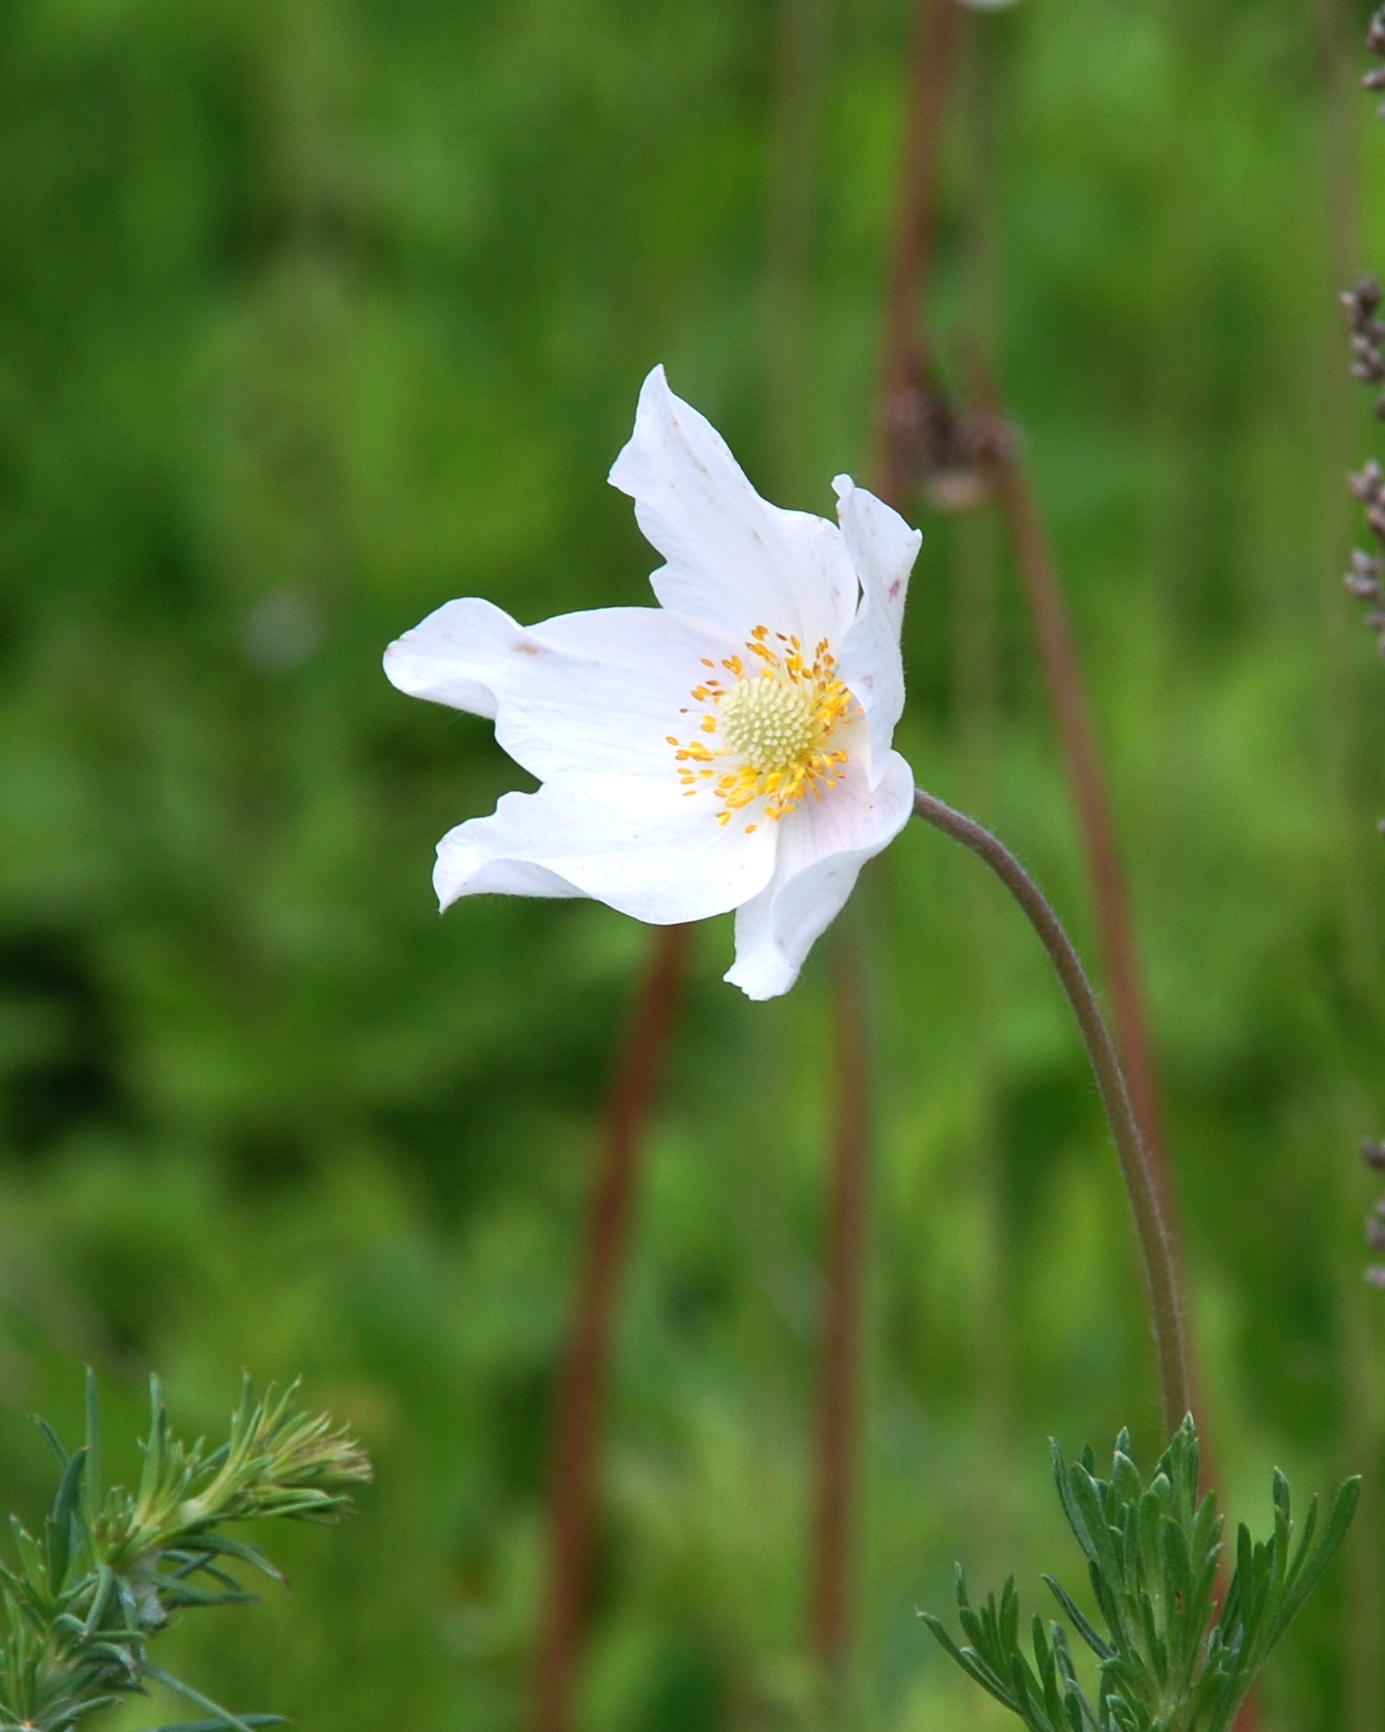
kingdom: Plantae
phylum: Tracheophyta
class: Magnoliopsida
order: Ranunculales
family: Ranunculaceae
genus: Anemone
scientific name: Anemone sylvestris
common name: Snowdrop anemone
